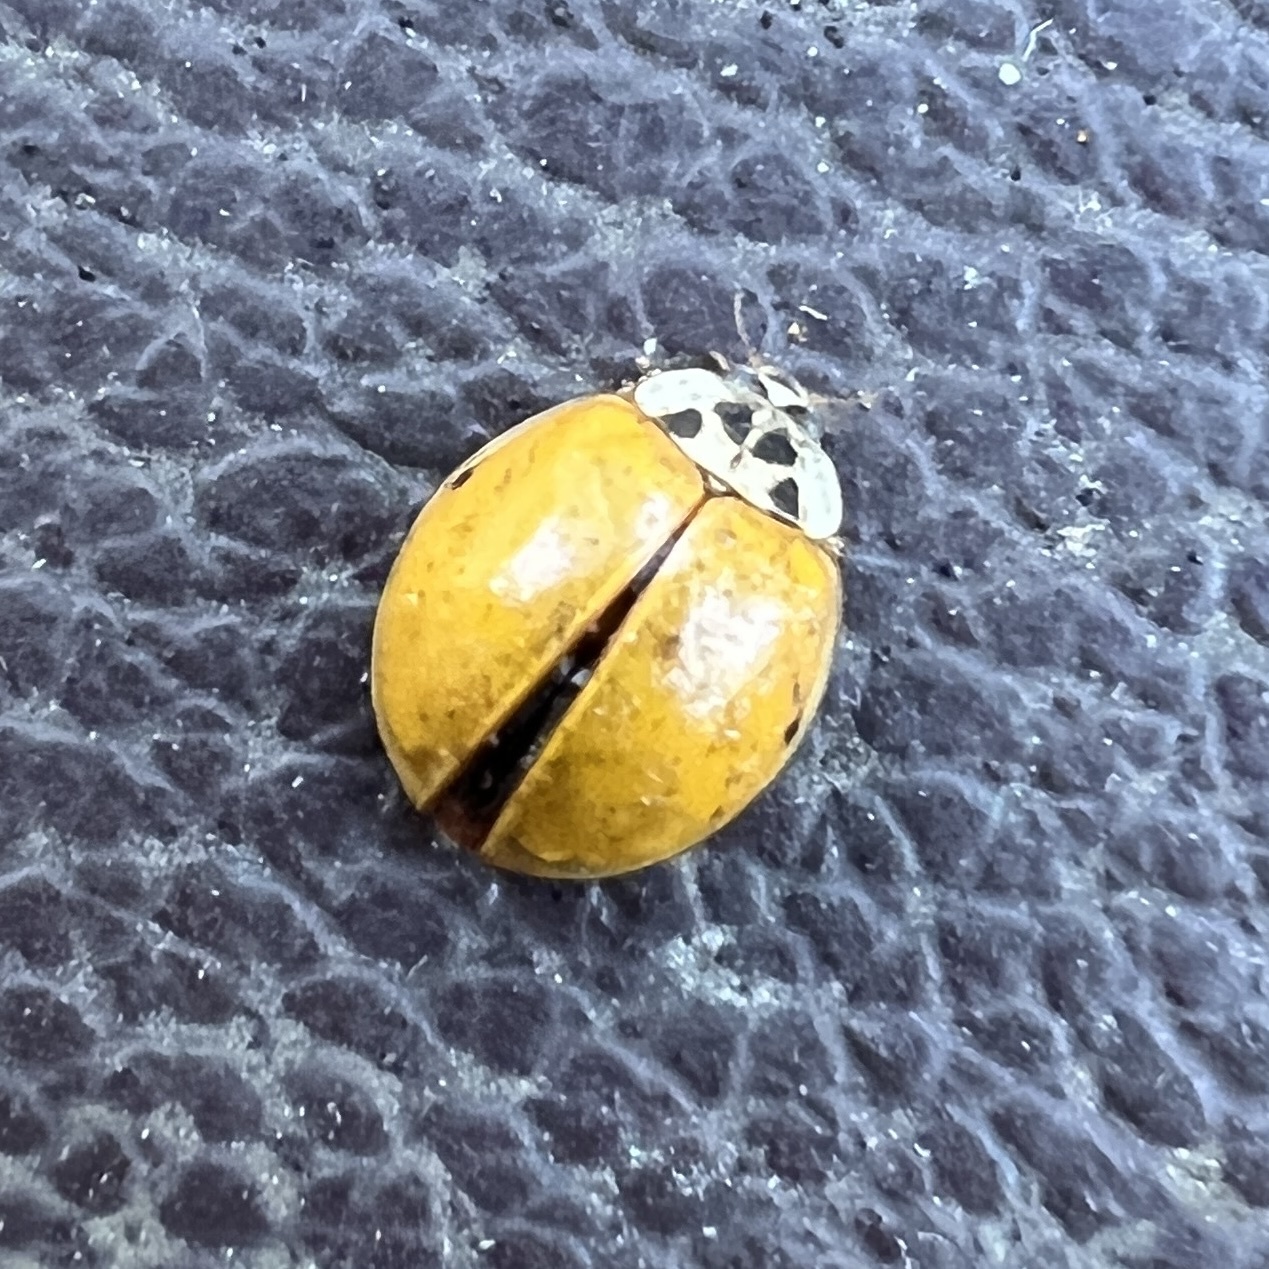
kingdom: Animalia
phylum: Arthropoda
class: Insecta
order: Coleoptera
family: Coccinellidae
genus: Harmonia
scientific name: Harmonia axyridis
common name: Harlequin ladybird
